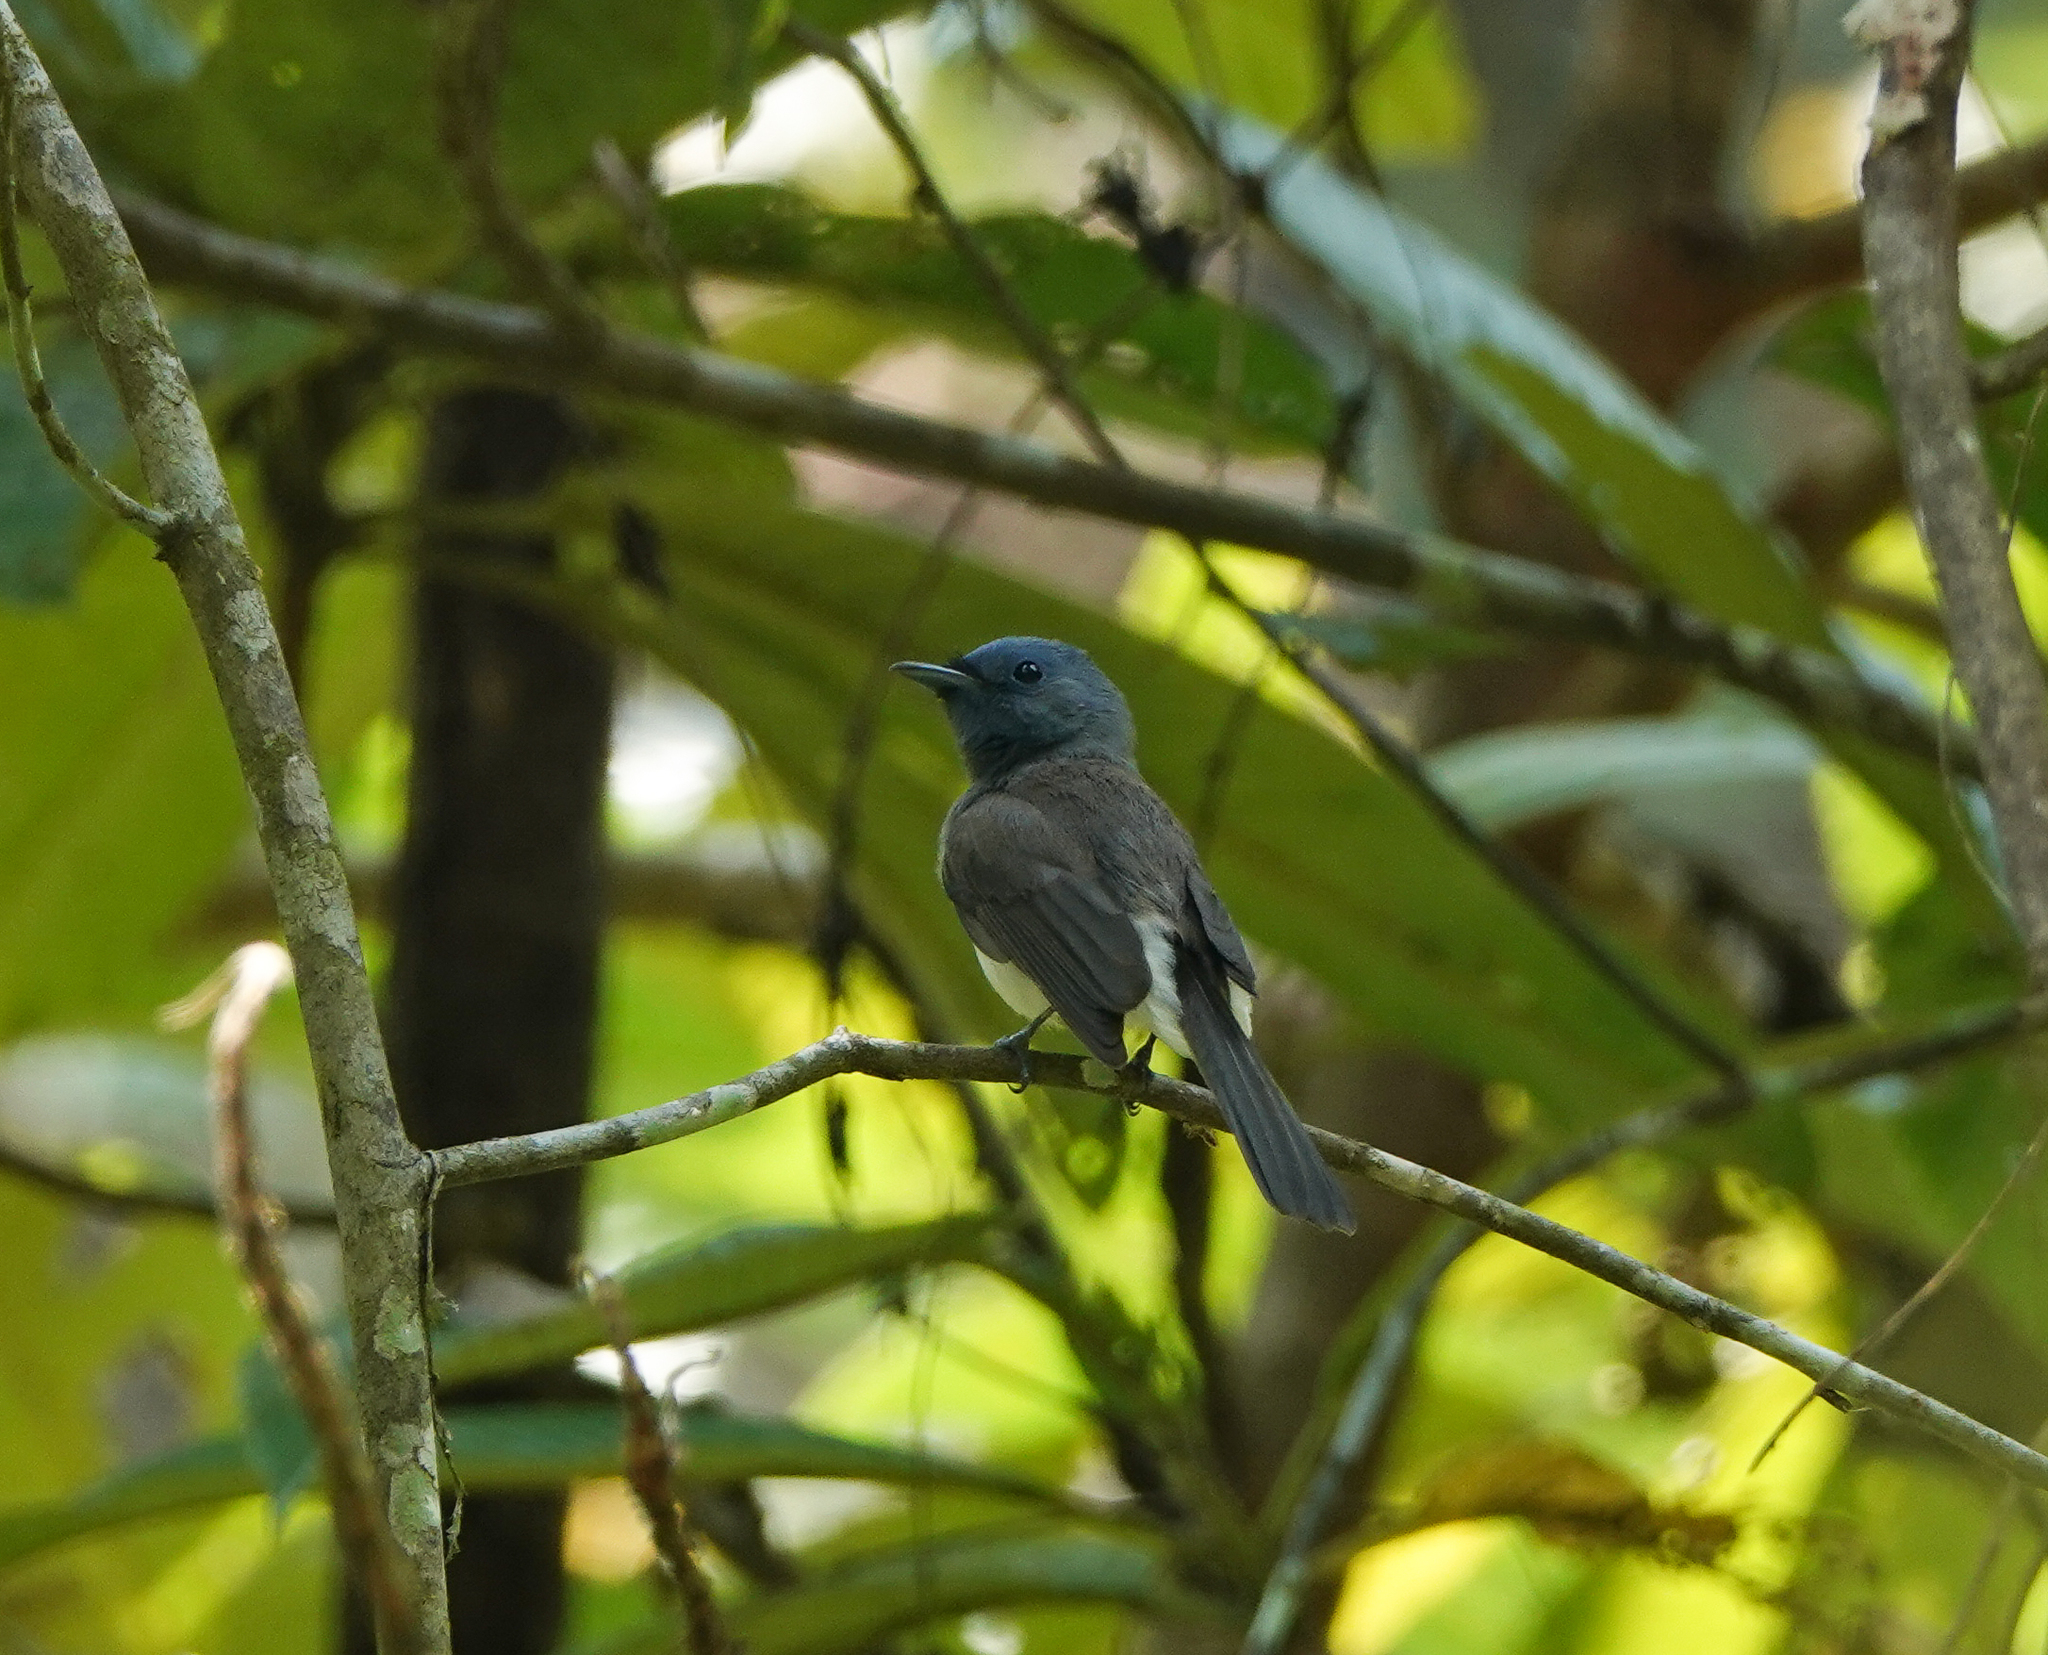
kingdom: Animalia
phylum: Chordata
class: Aves
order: Passeriformes
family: Monarchidae
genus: Hypothymis
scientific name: Hypothymis azurea
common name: Black-naped monarch
